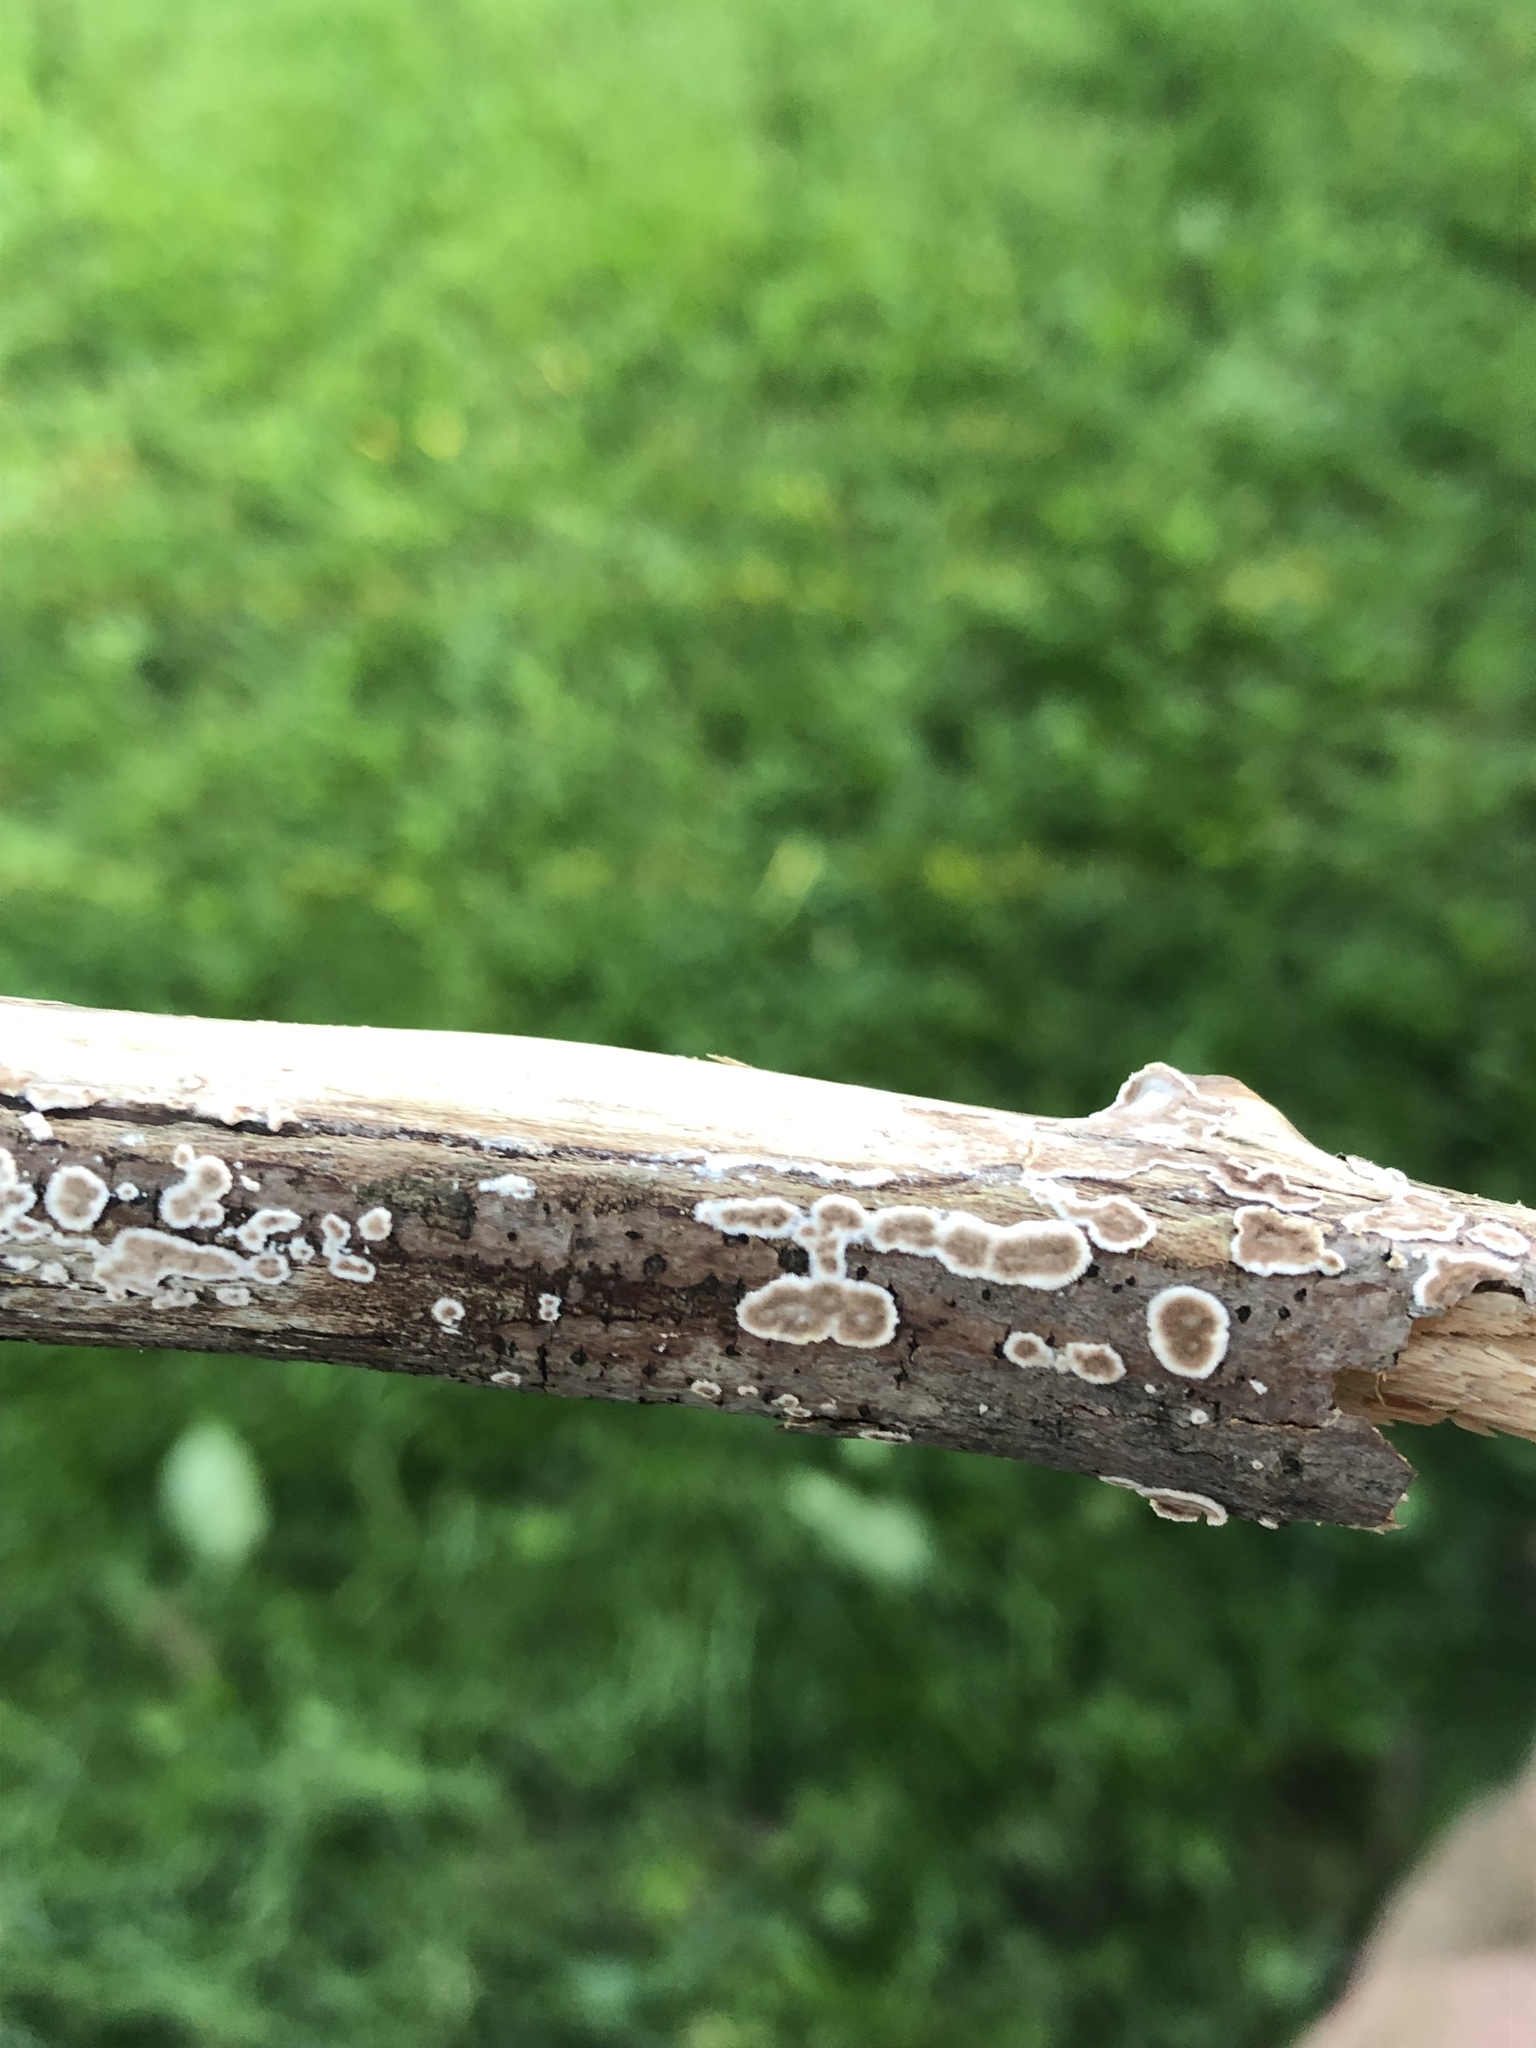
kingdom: Fungi
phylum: Basidiomycota
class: Agaricomycetes
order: Russulales
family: Peniophoraceae
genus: Peniophora
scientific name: Peniophora albobadia
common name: Giraffe spots
